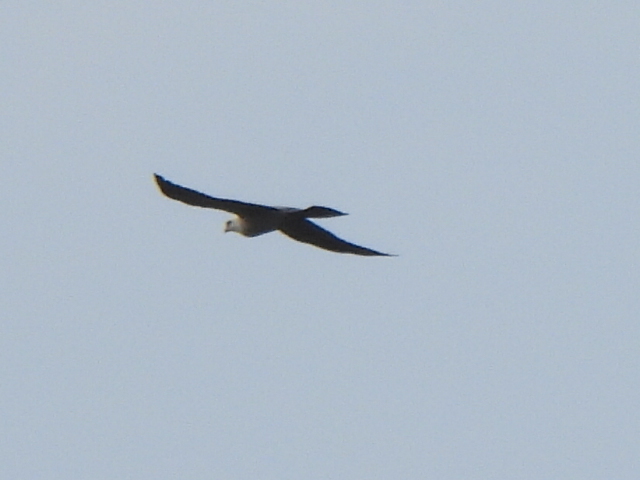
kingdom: Animalia
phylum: Chordata
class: Aves
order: Accipitriformes
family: Accipitridae
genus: Ictinia
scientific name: Ictinia mississippiensis
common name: Mississippi kite
